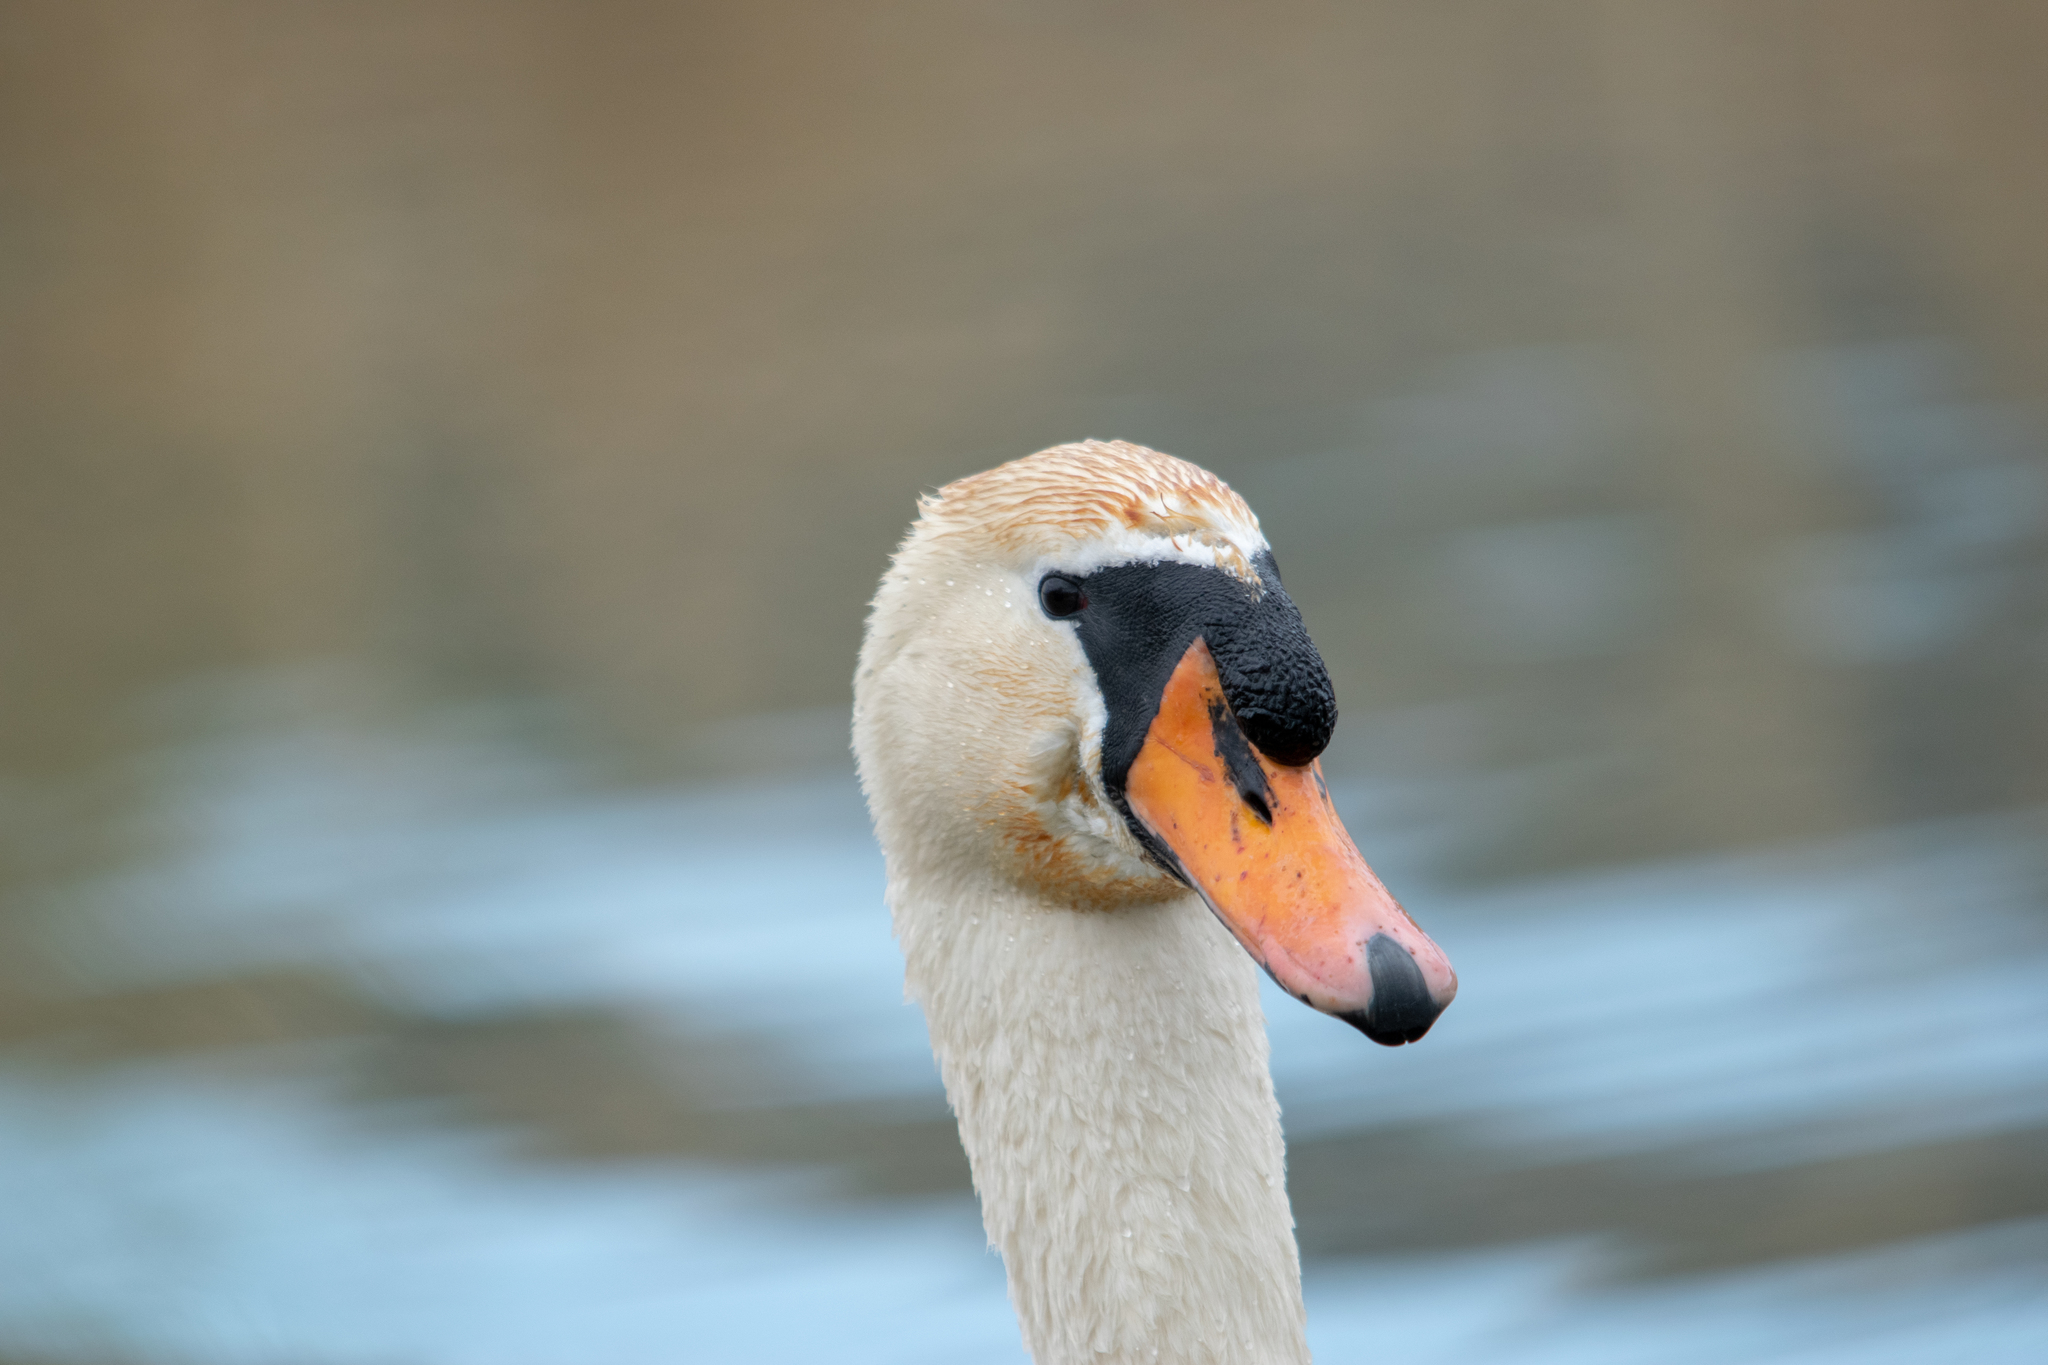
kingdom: Animalia
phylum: Chordata
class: Aves
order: Anseriformes
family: Anatidae
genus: Cygnus
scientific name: Cygnus olor
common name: Mute swan
